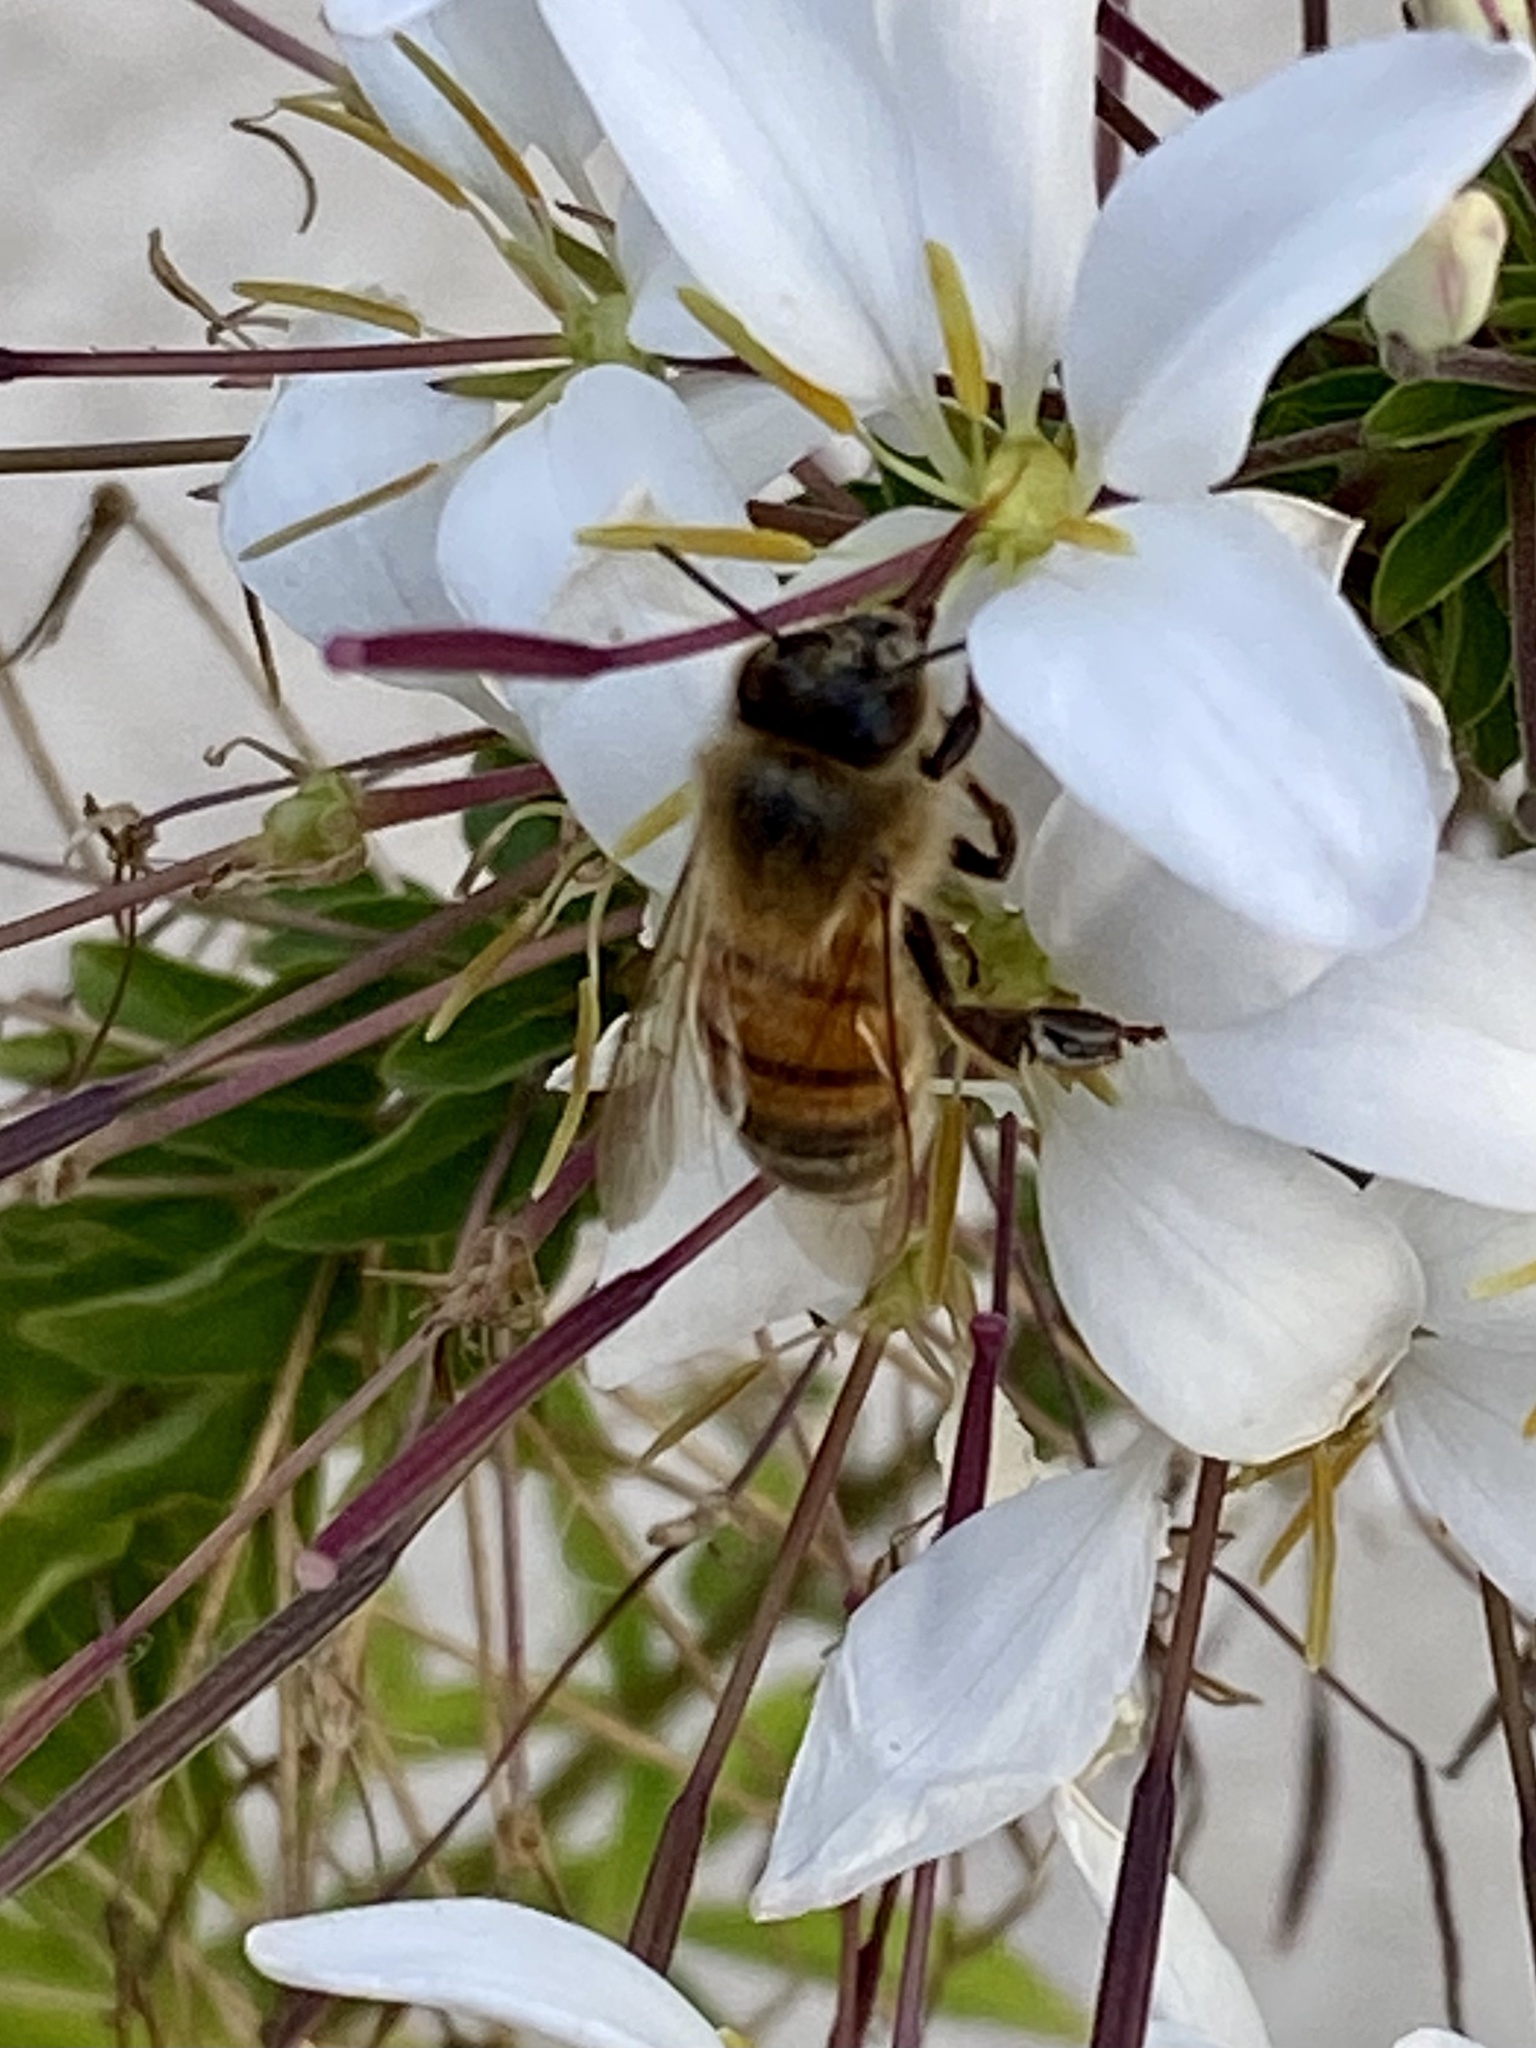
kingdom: Animalia
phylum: Arthropoda
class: Insecta
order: Hymenoptera
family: Apidae
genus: Apis
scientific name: Apis mellifera
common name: Honey bee
